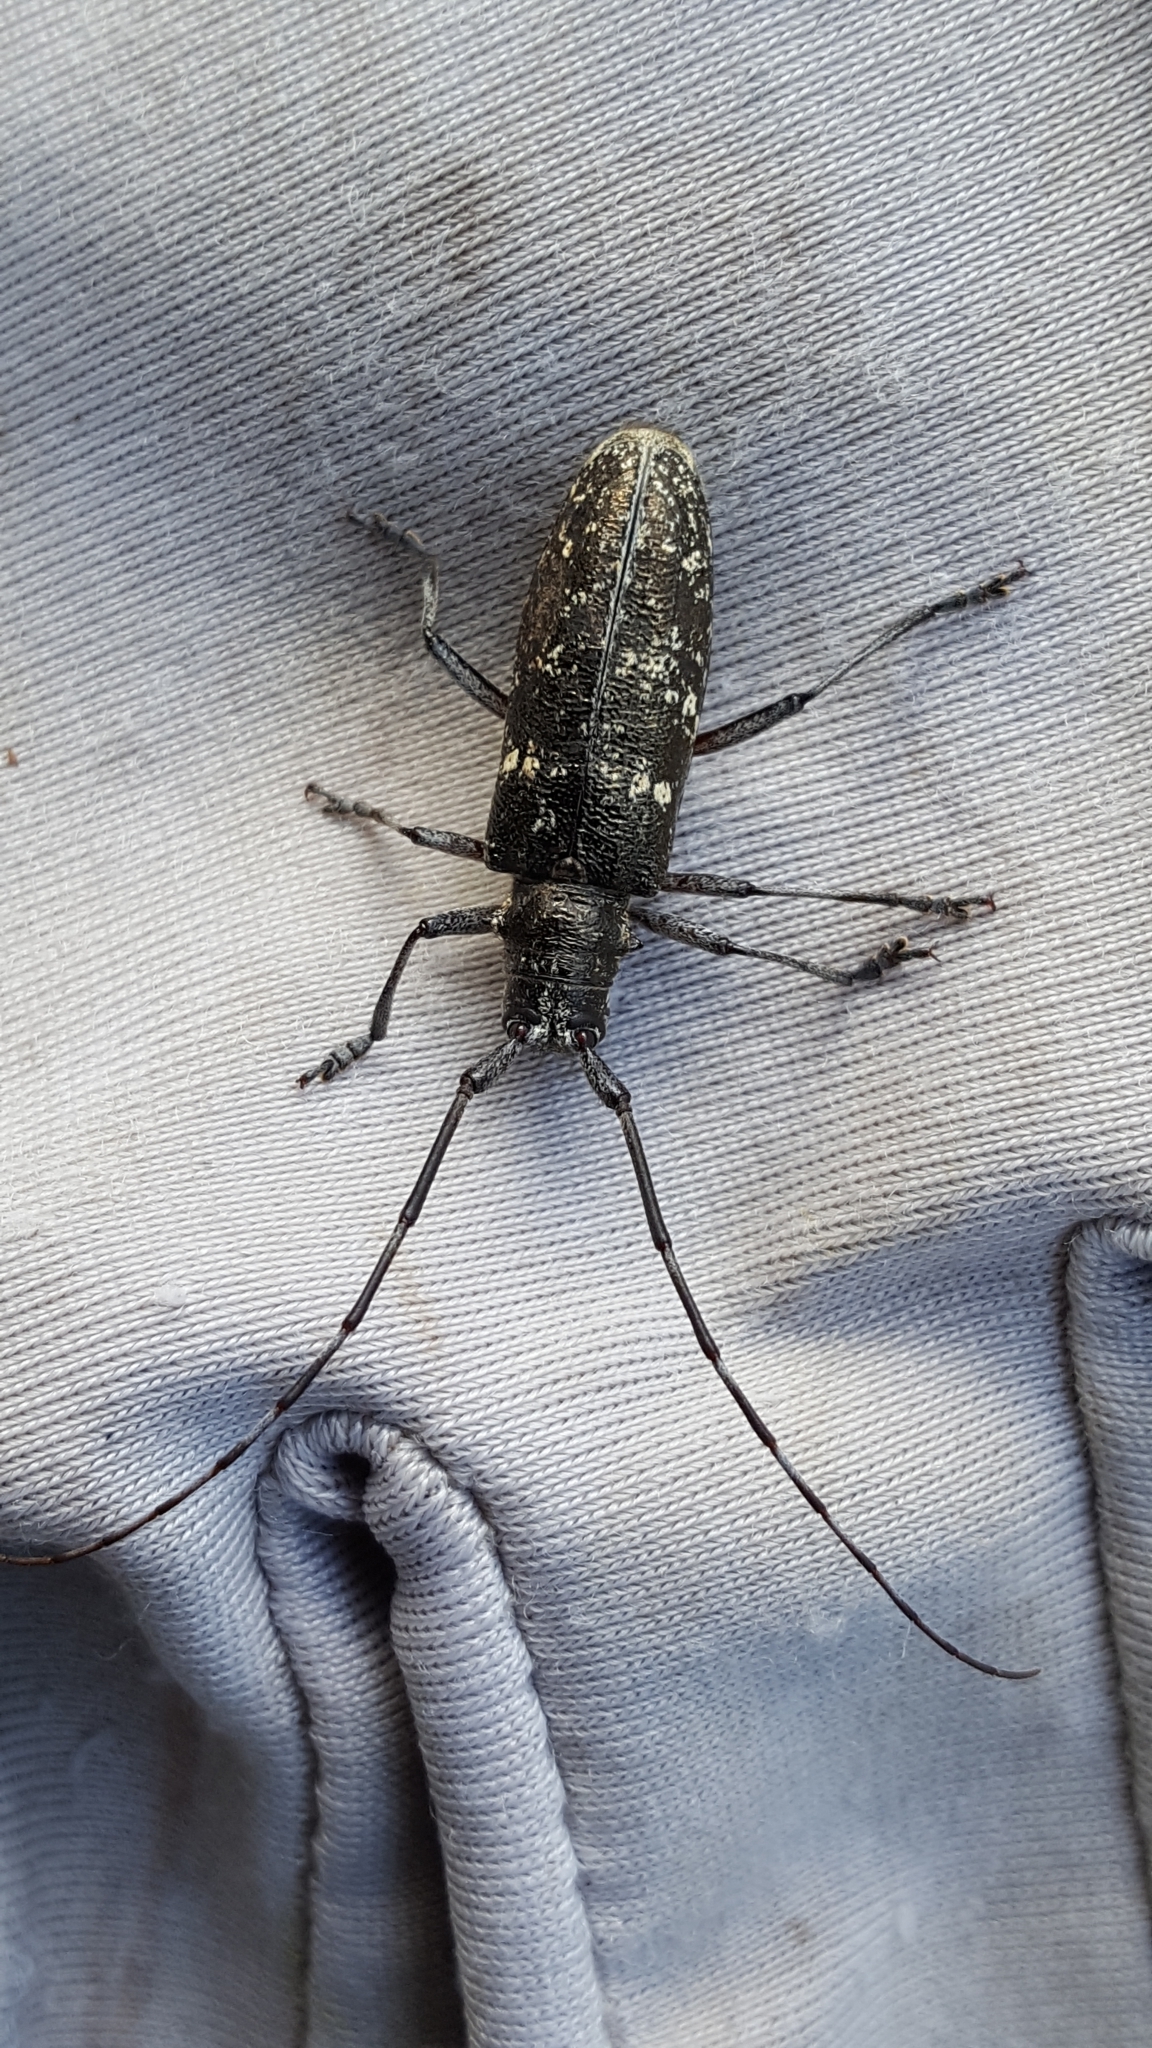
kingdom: Animalia
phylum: Arthropoda
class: Insecta
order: Coleoptera
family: Cerambycidae
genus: Monochamus
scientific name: Monochamus scutellatus
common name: White-spotted sawyer beetle
